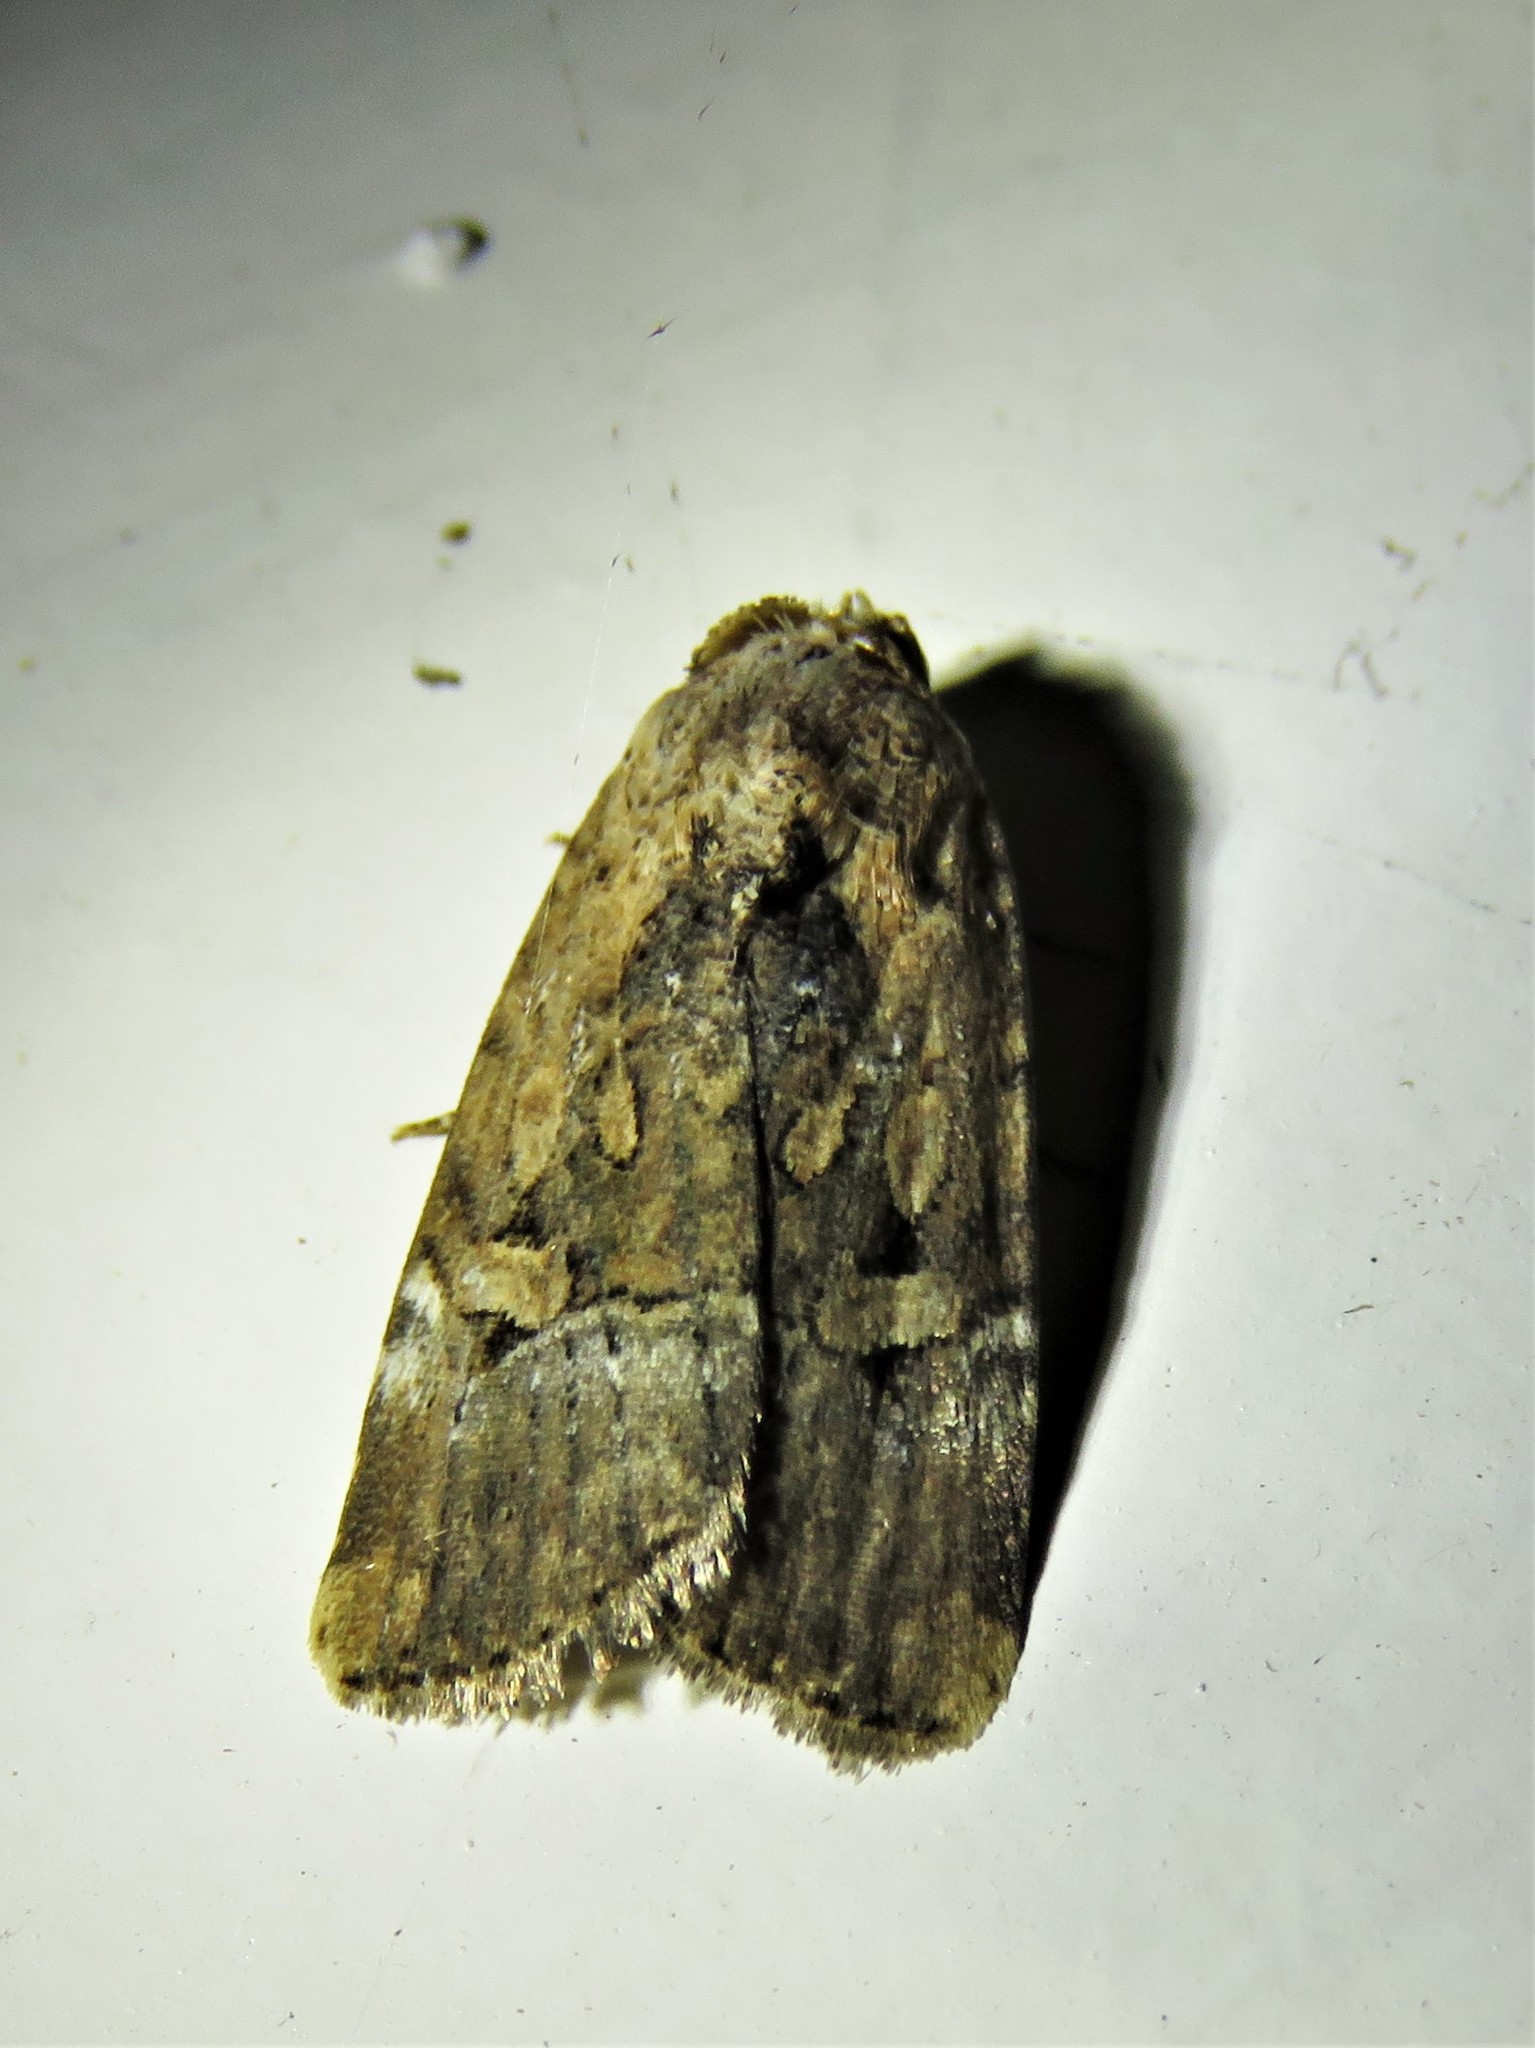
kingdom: Animalia
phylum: Arthropoda
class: Insecta
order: Lepidoptera
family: Noctuidae
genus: Elaphria
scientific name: Elaphria chalcedonia
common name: Chalcedony midget
